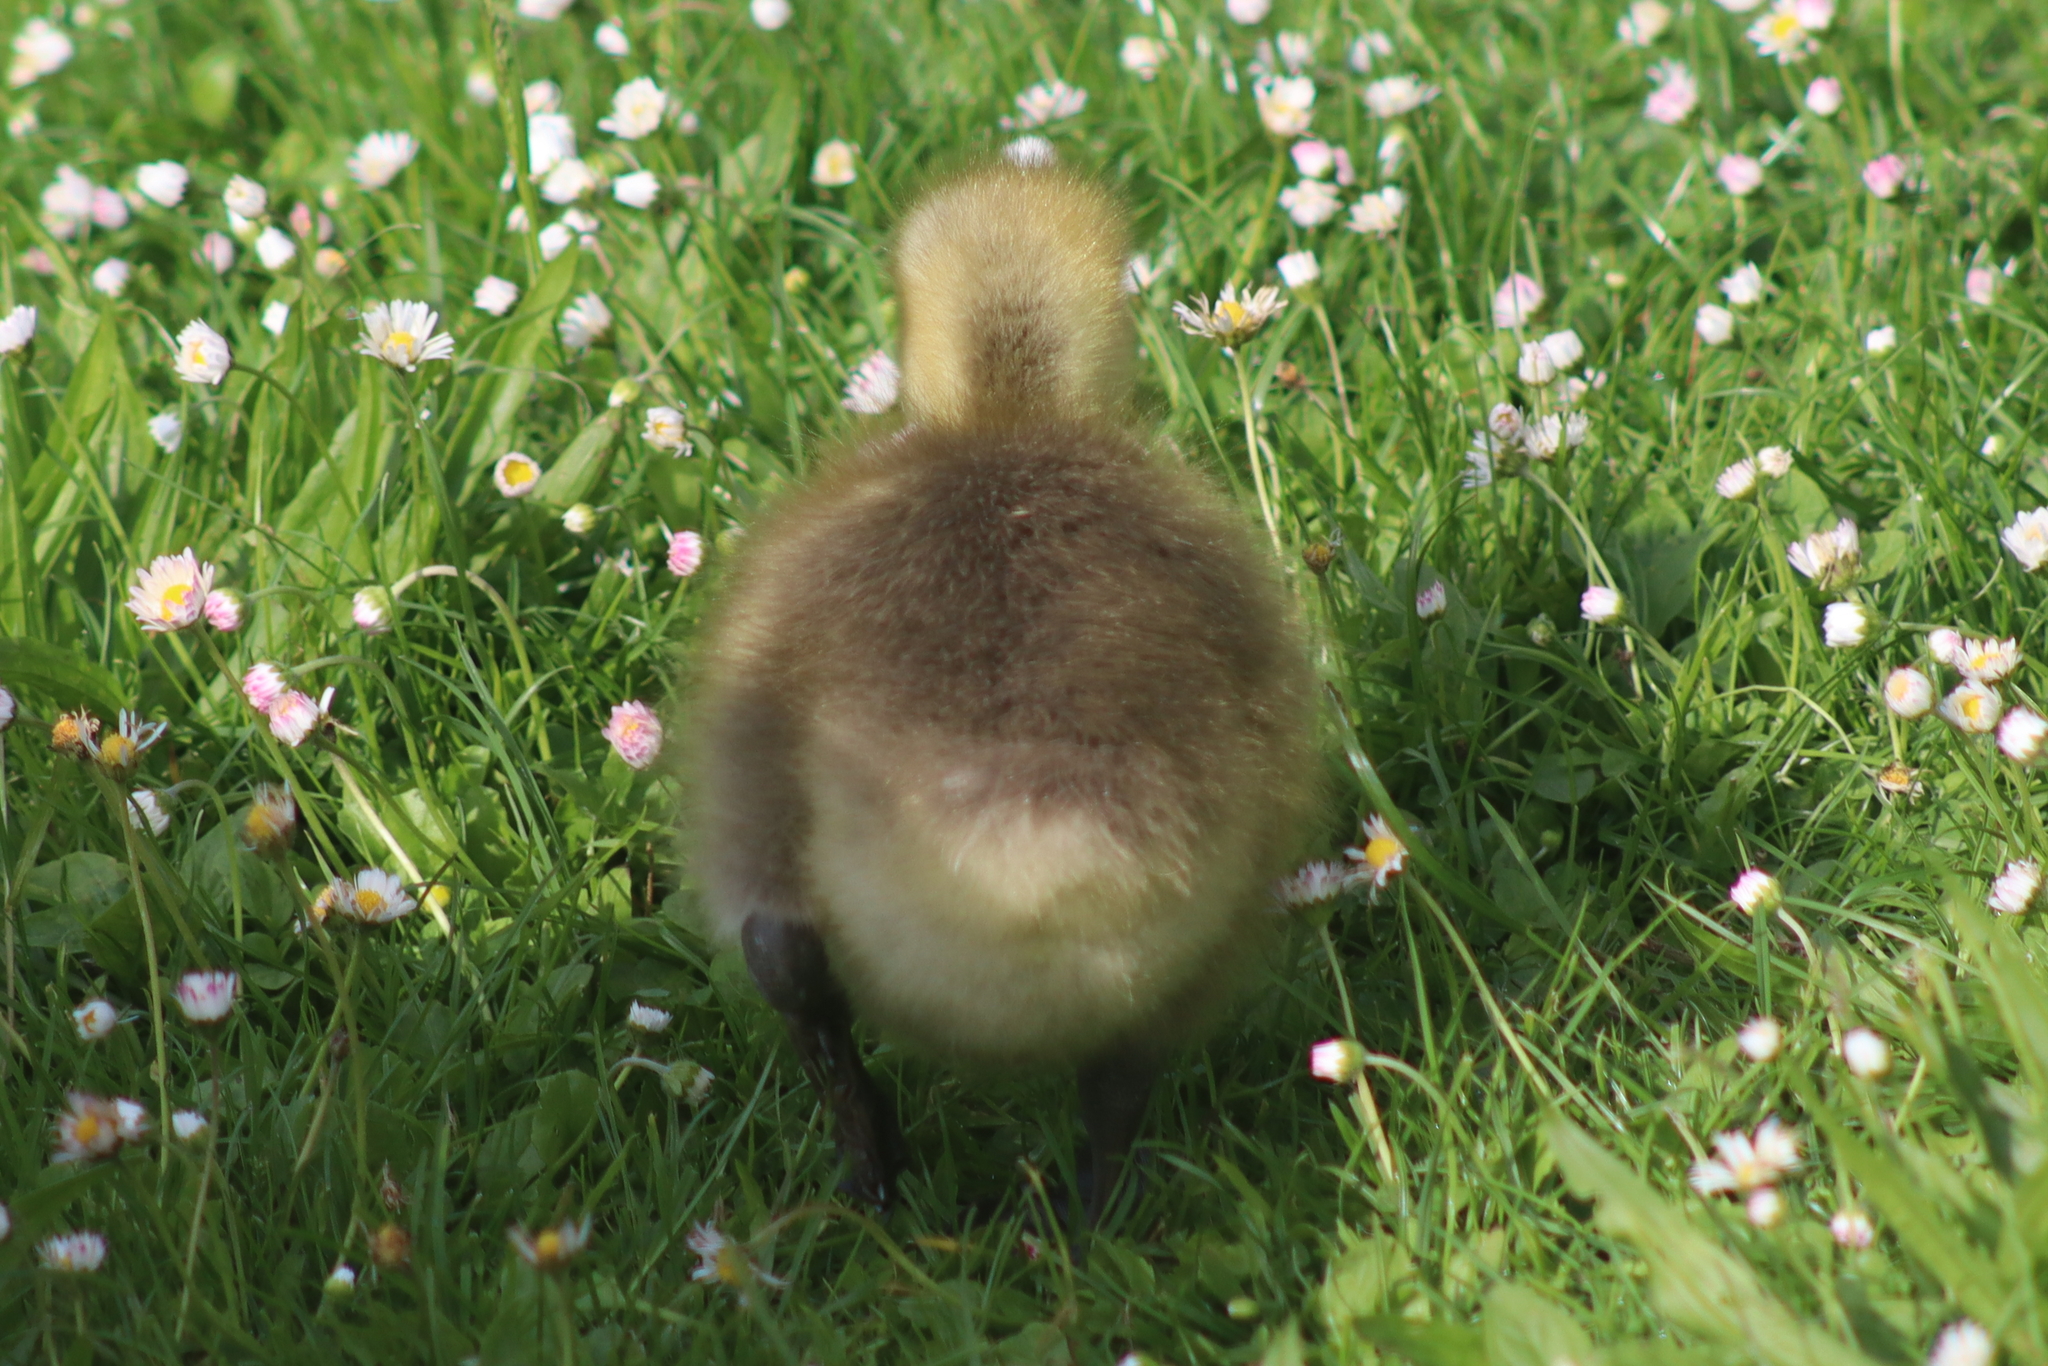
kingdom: Animalia
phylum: Chordata
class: Aves
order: Anseriformes
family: Anatidae
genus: Branta
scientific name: Branta canadensis
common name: Canada goose
